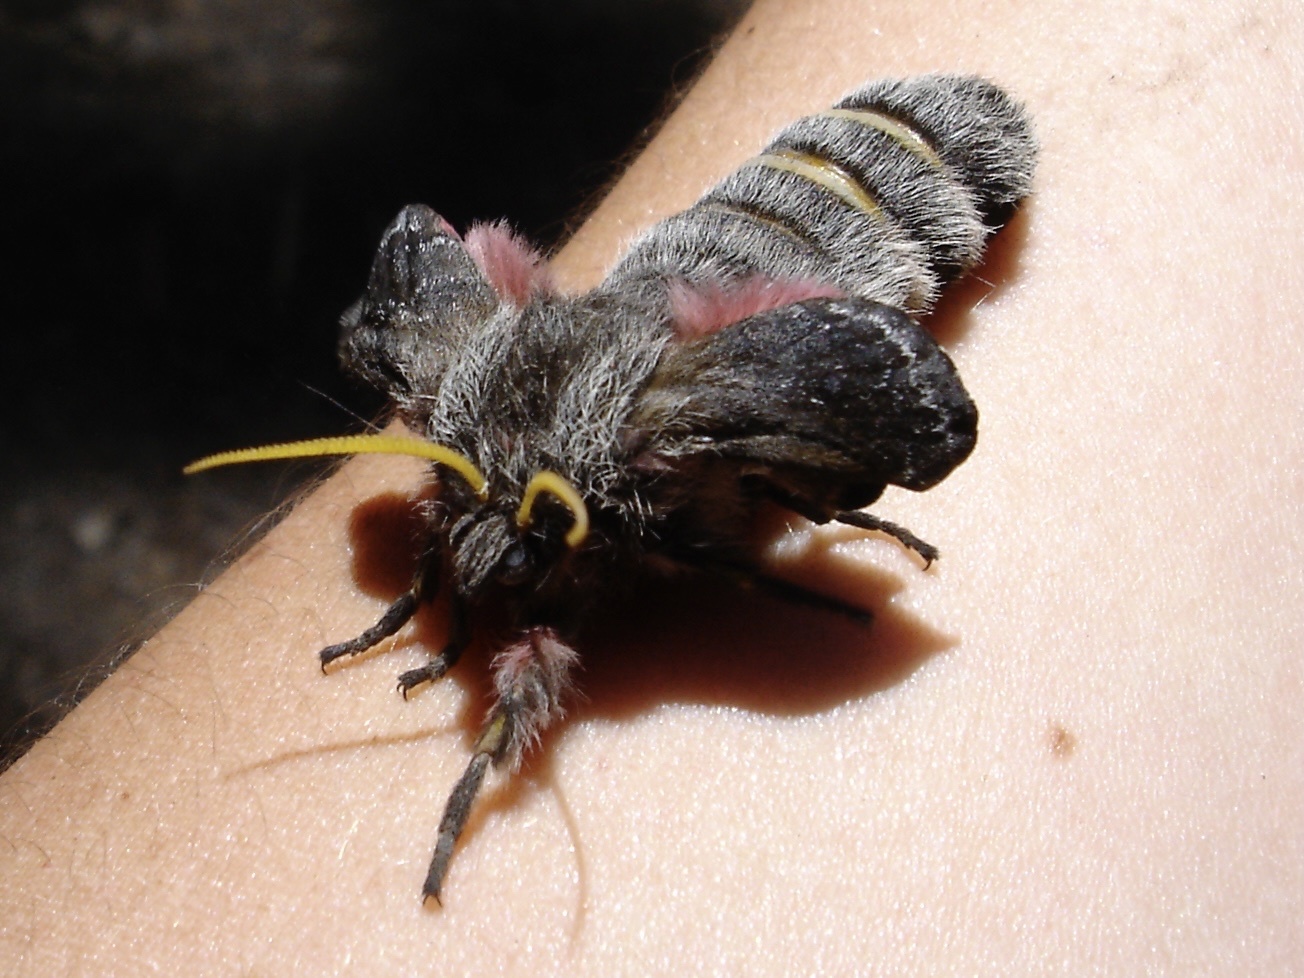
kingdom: Animalia
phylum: Arthropoda
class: Insecta
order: Lepidoptera
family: Saturniidae
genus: Coloradia
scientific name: Coloradia pandora
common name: Pandora pinemoth
